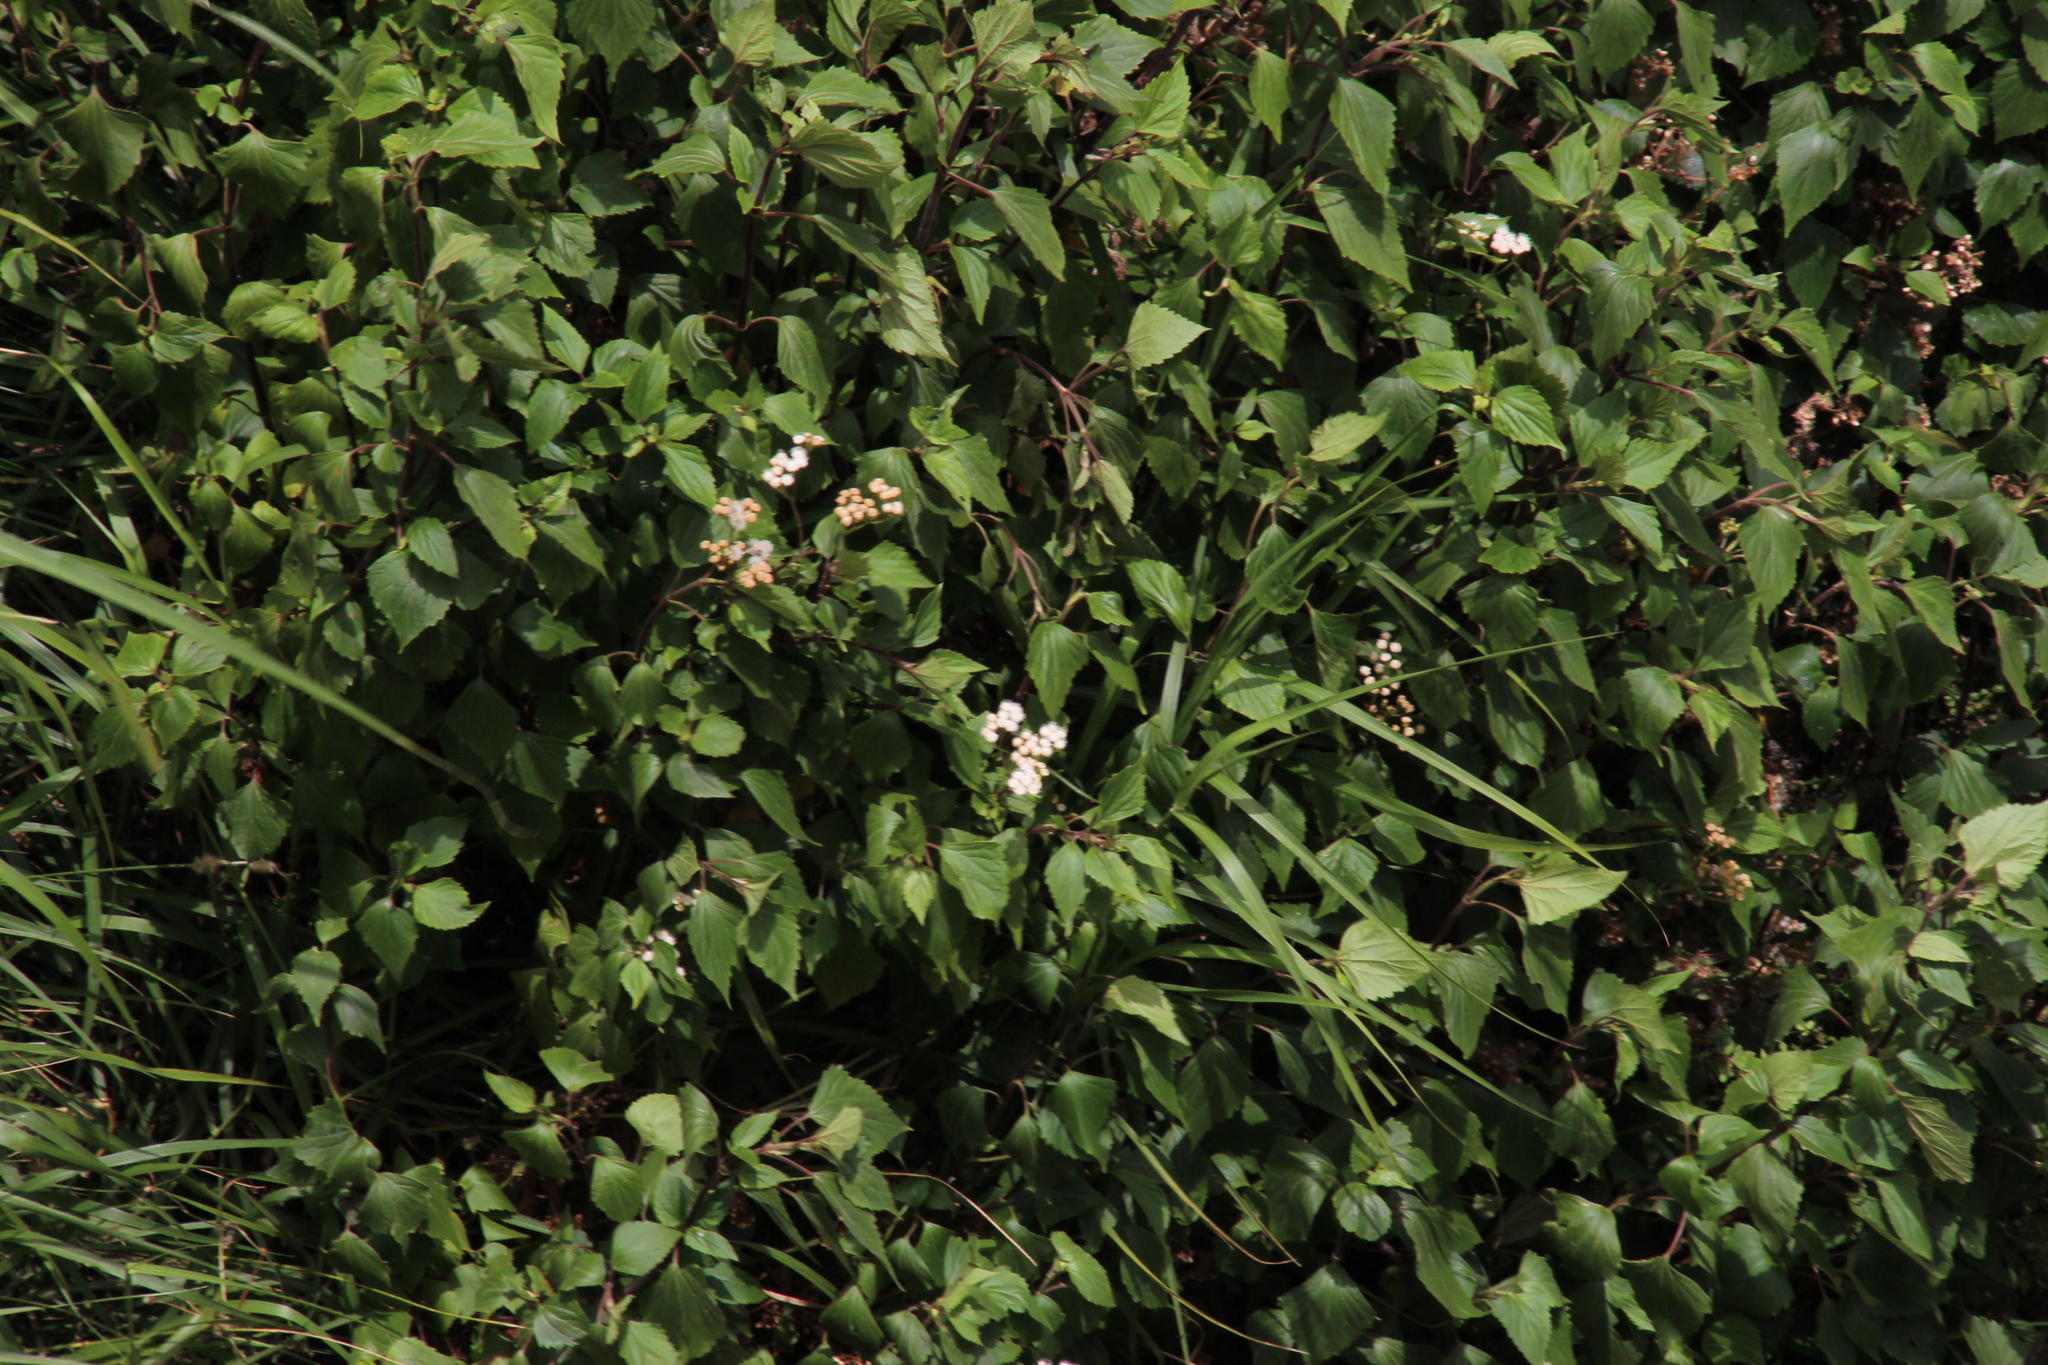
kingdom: Plantae
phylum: Tracheophyta
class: Magnoliopsida
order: Asterales
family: Asteraceae
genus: Ageratina
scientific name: Ageratina adenophora
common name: Sticky snakeroot
